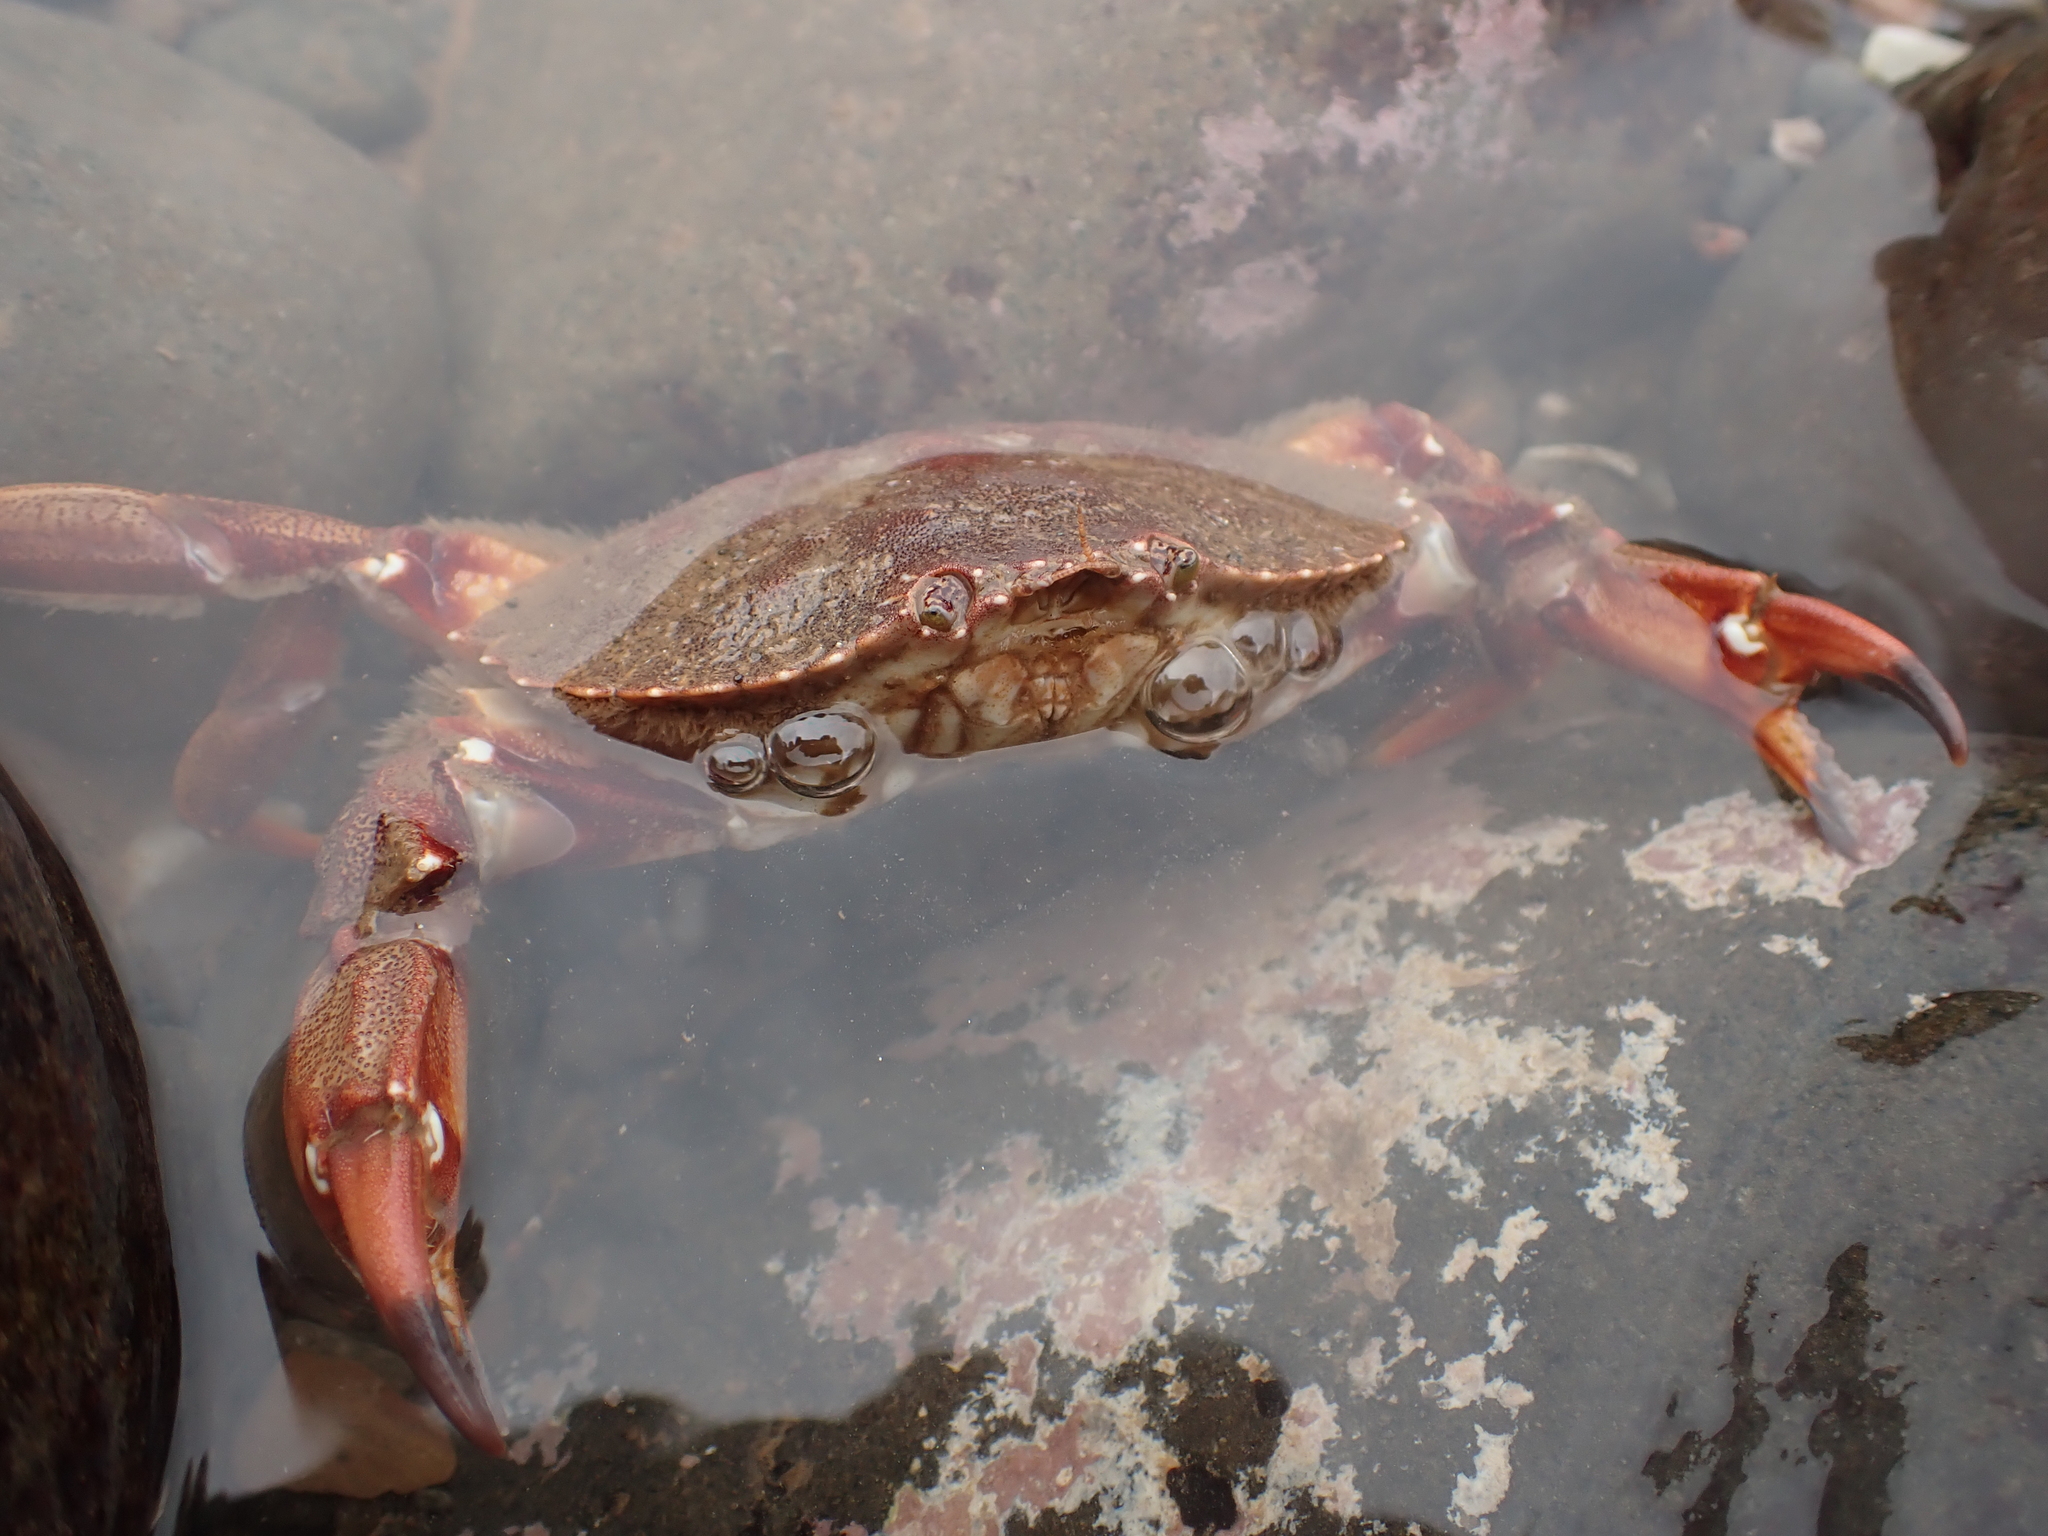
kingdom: Animalia
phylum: Arthropoda
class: Malacostraca
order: Decapoda
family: Cancridae
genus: Cancer
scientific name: Cancer irroratus
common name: Atlantic rock crab
